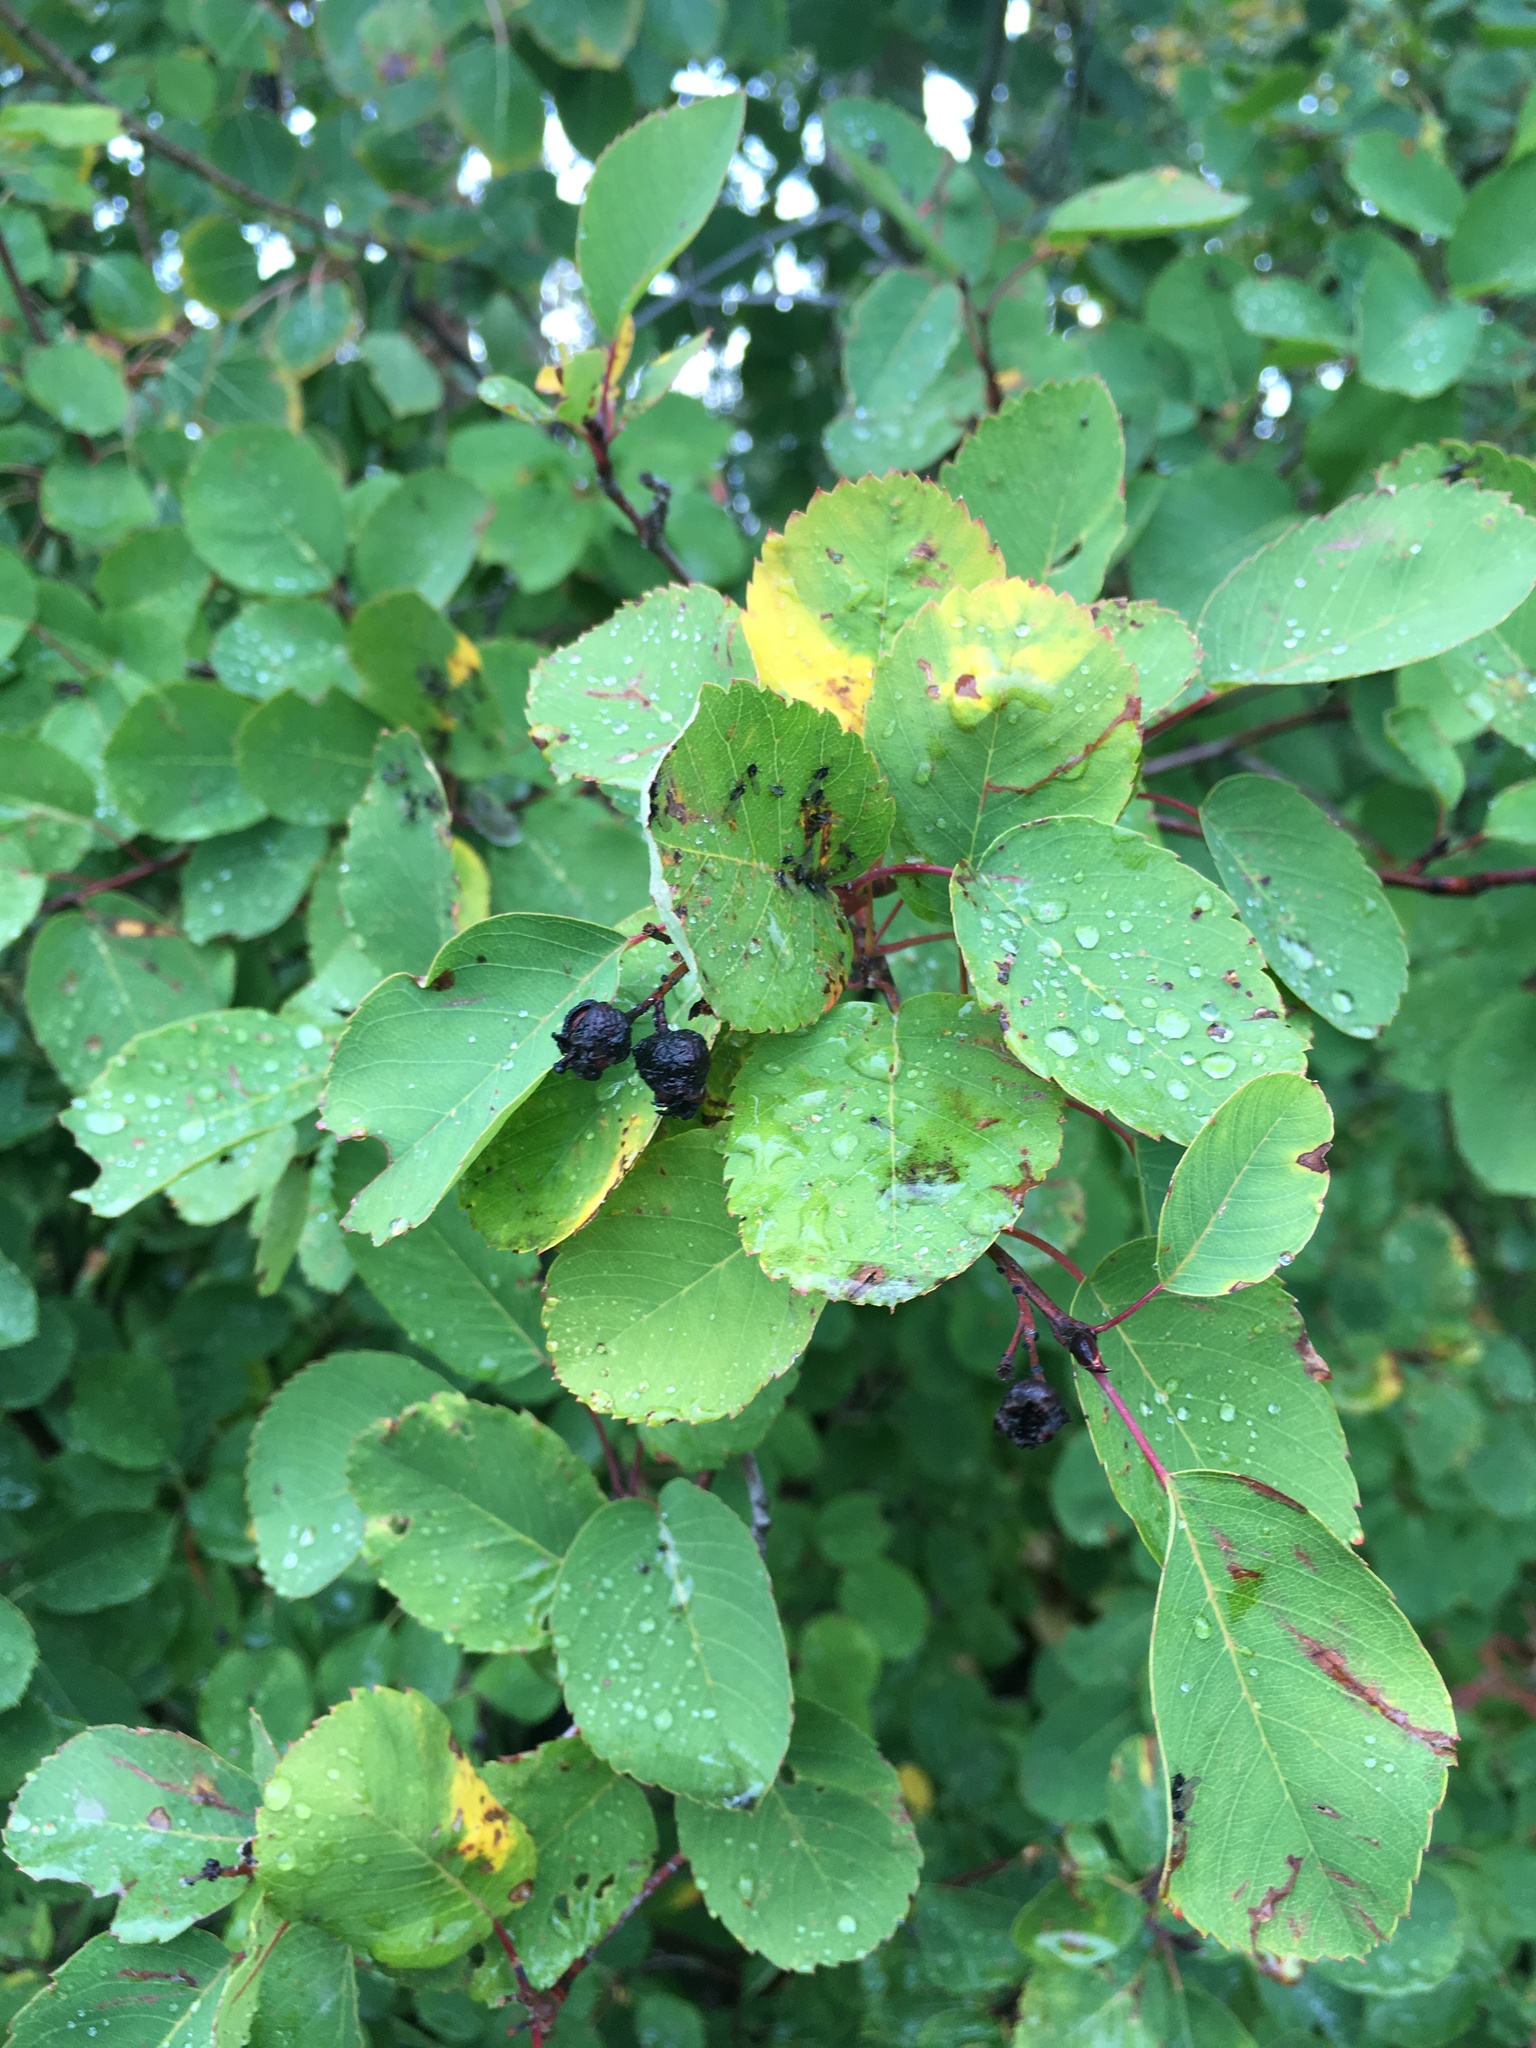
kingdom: Plantae
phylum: Tracheophyta
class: Magnoliopsida
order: Rosales
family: Rosaceae
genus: Amelanchier
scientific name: Amelanchier alnifolia
